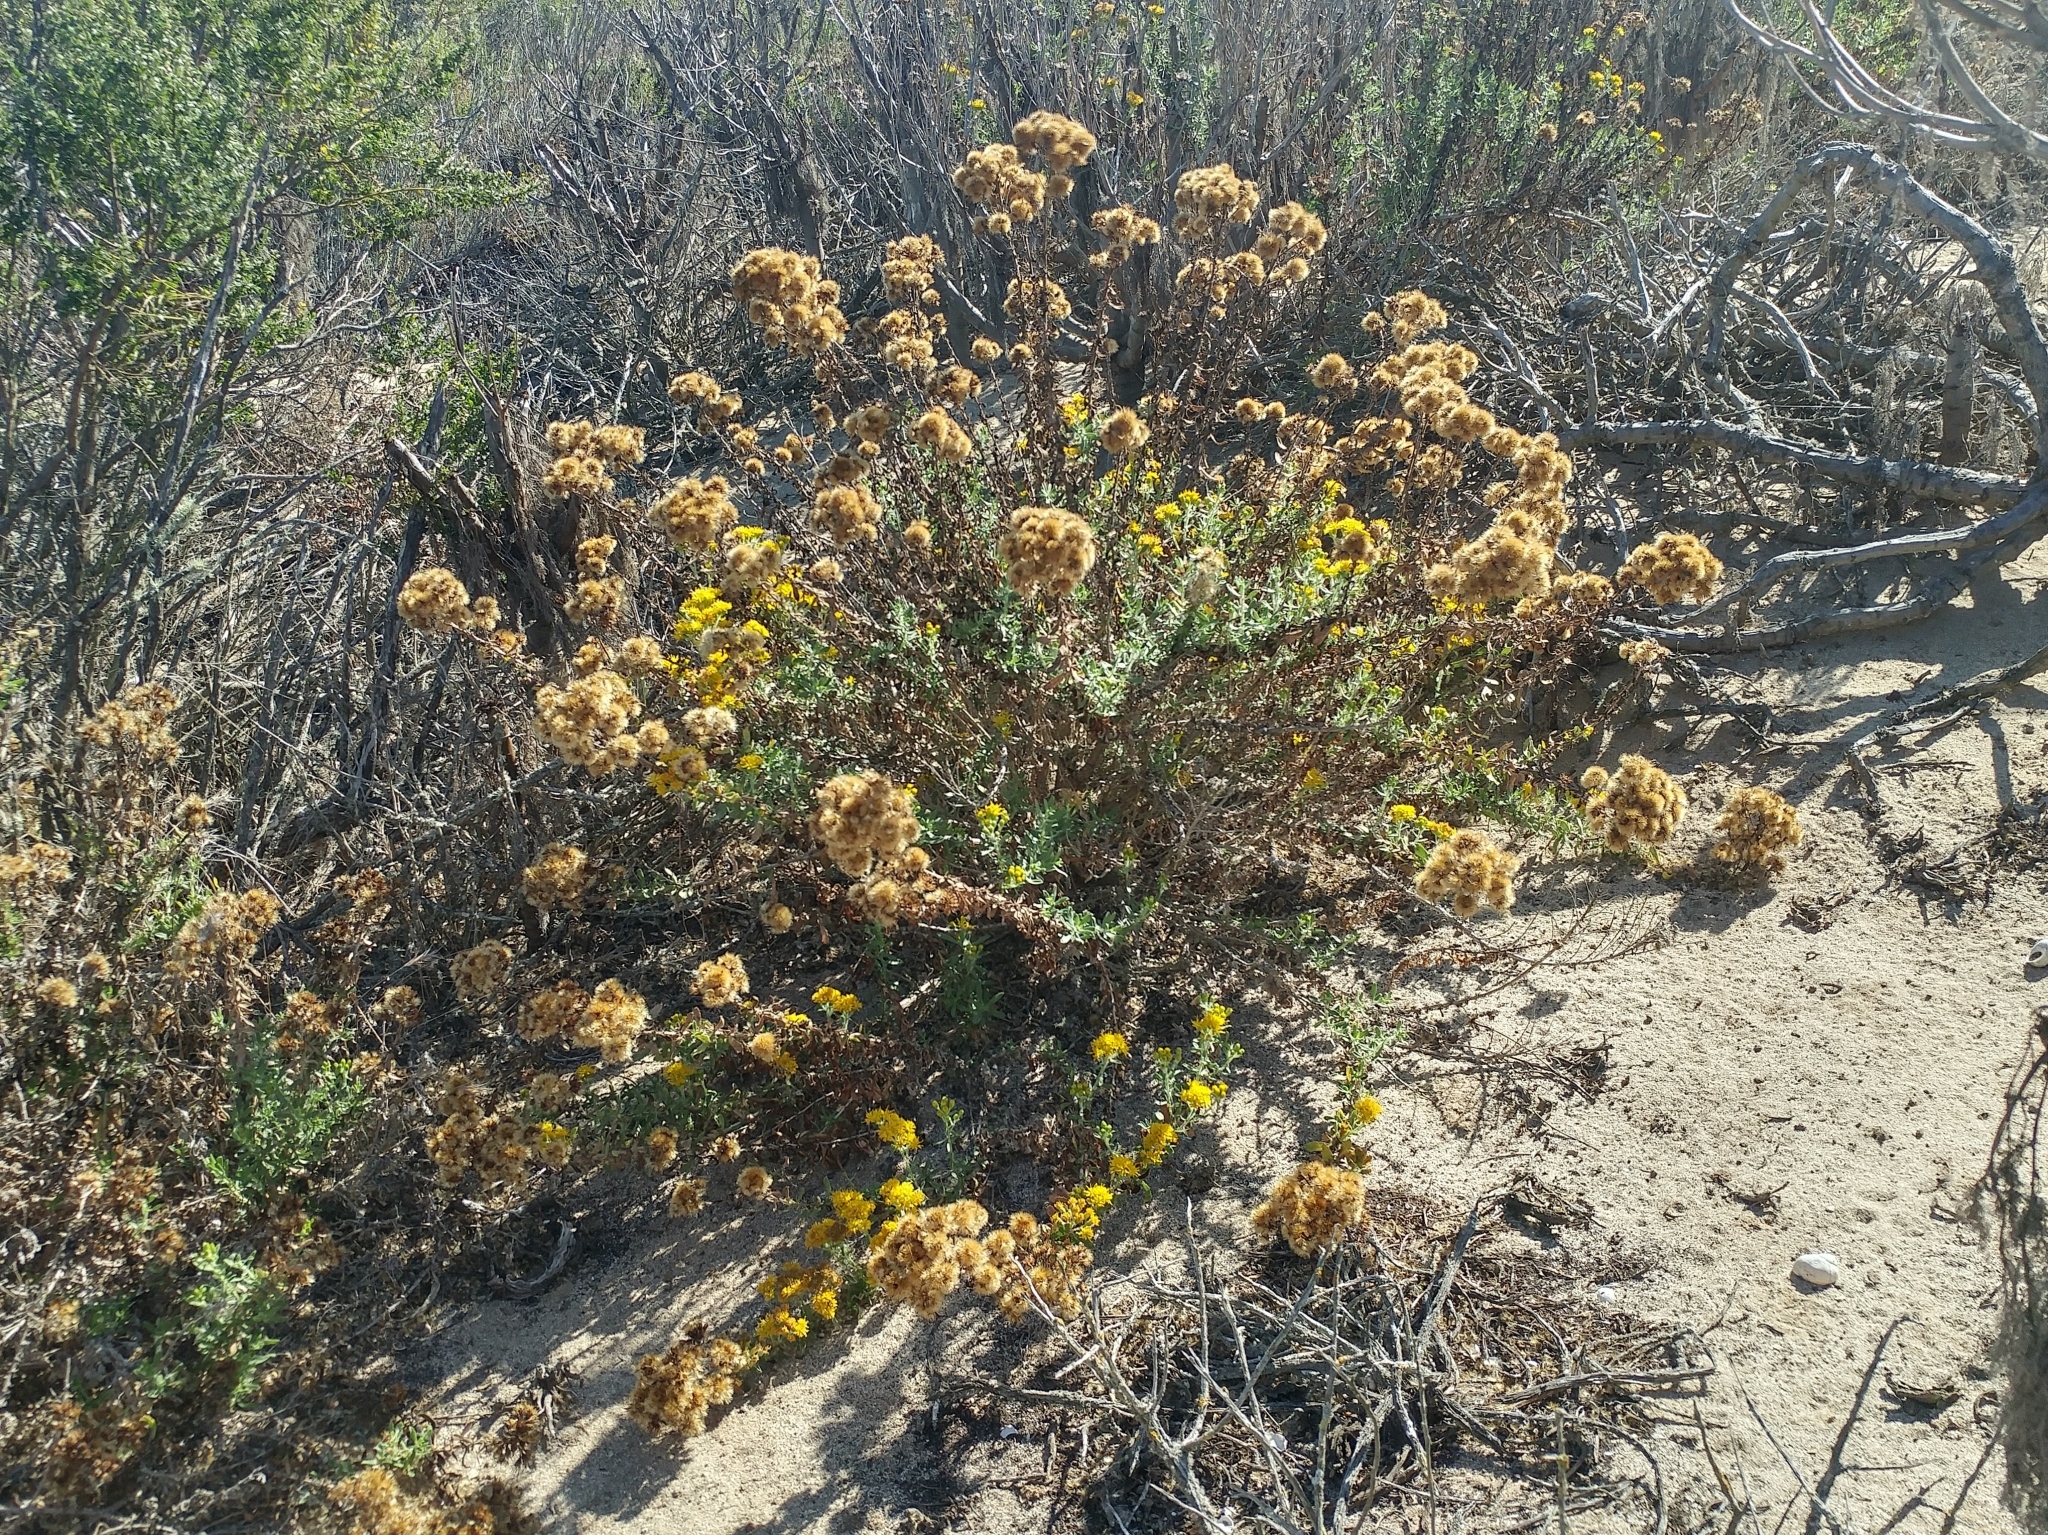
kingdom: Plantae
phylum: Tracheophyta
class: Magnoliopsida
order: Asterales
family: Asteraceae
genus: Isocoma
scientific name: Isocoma menziesii
